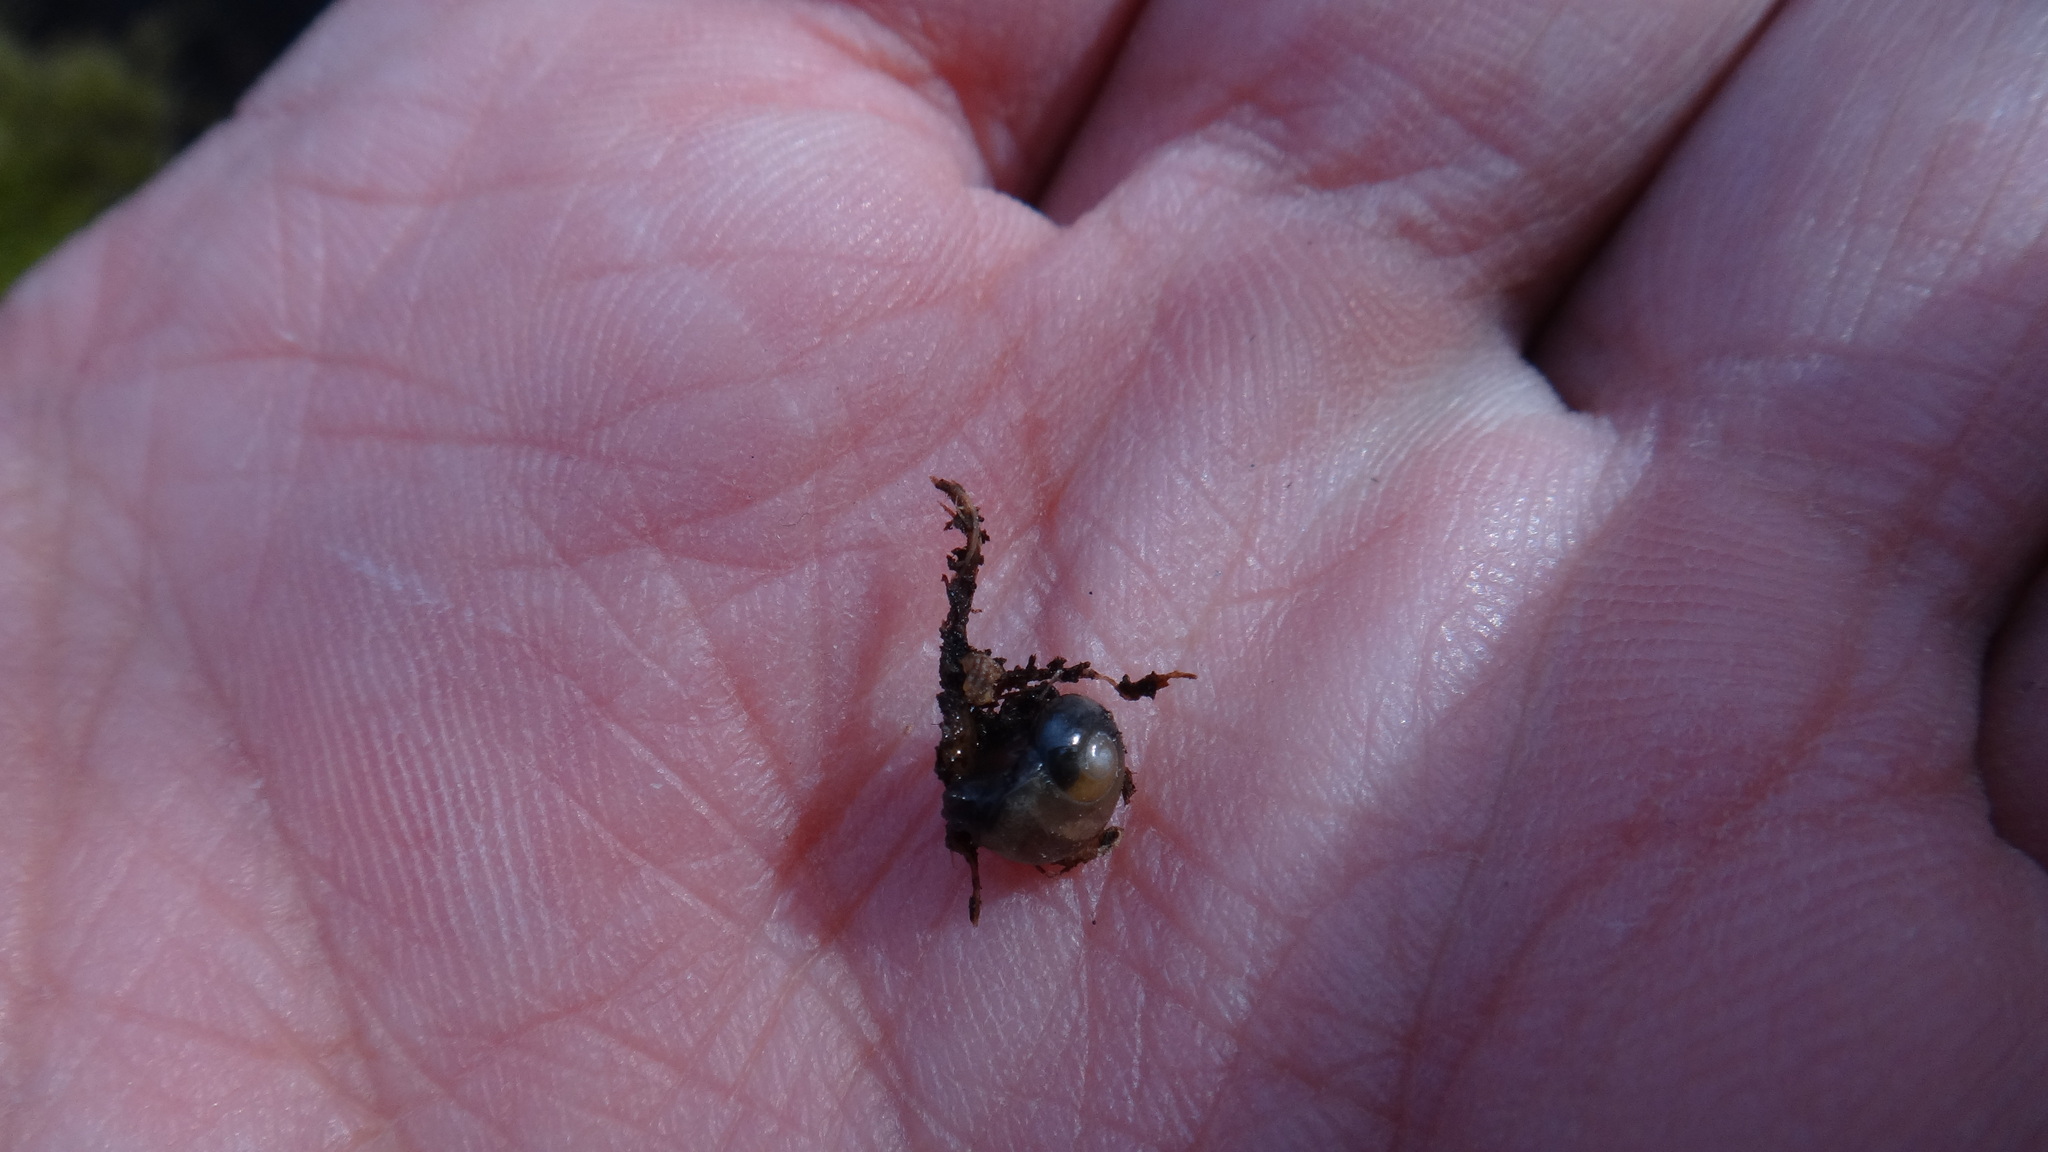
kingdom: Animalia
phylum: Mollusca
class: Gastropoda
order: Stylommatophora
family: Vitrinidae
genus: Vitrina
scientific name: Vitrina pellucida
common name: Pellucid glass snail
